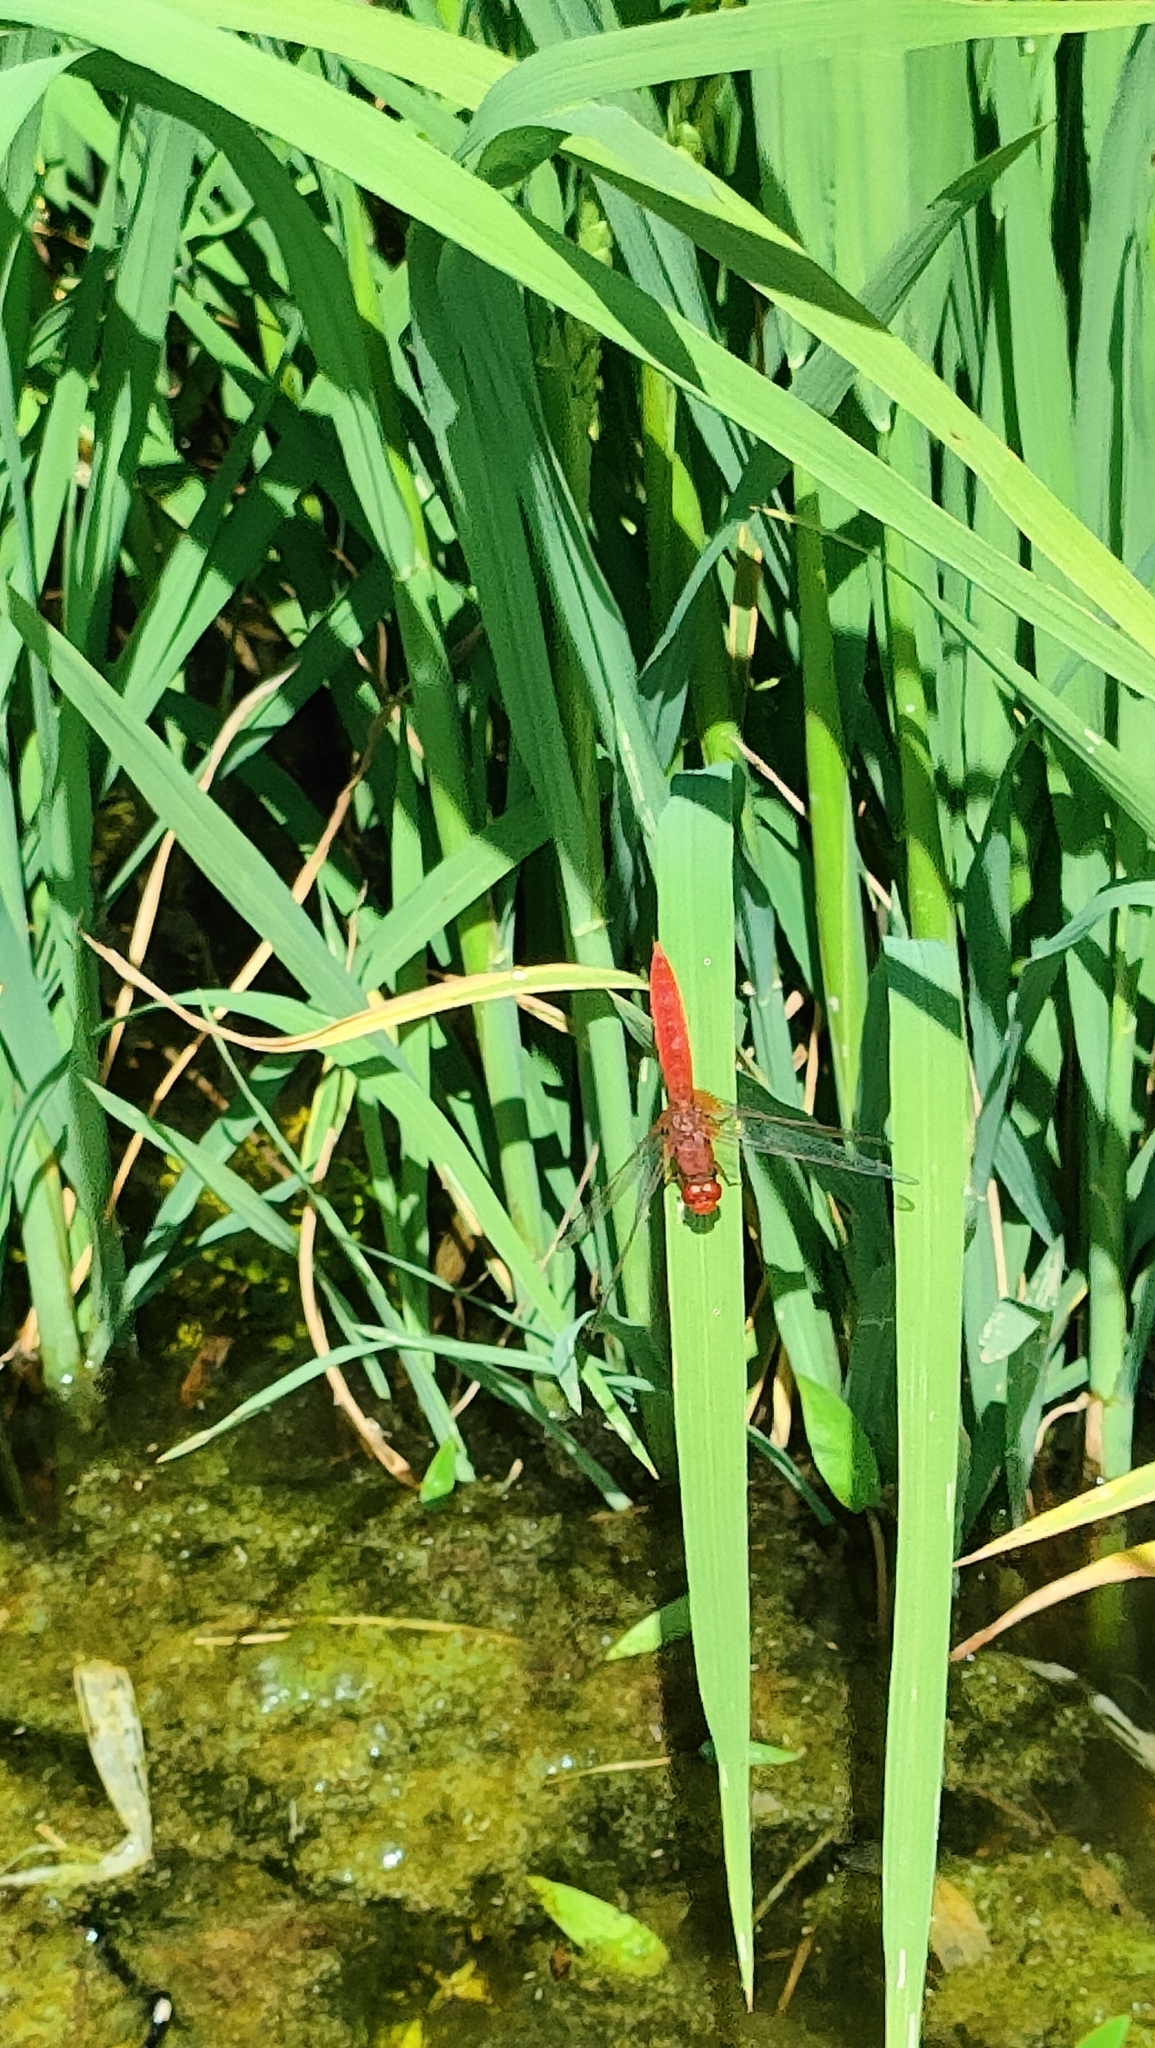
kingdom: Animalia
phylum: Arthropoda
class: Insecta
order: Odonata
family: Libellulidae
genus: Crocothemis
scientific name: Crocothemis erythraea
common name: Scarlet dragonfly
